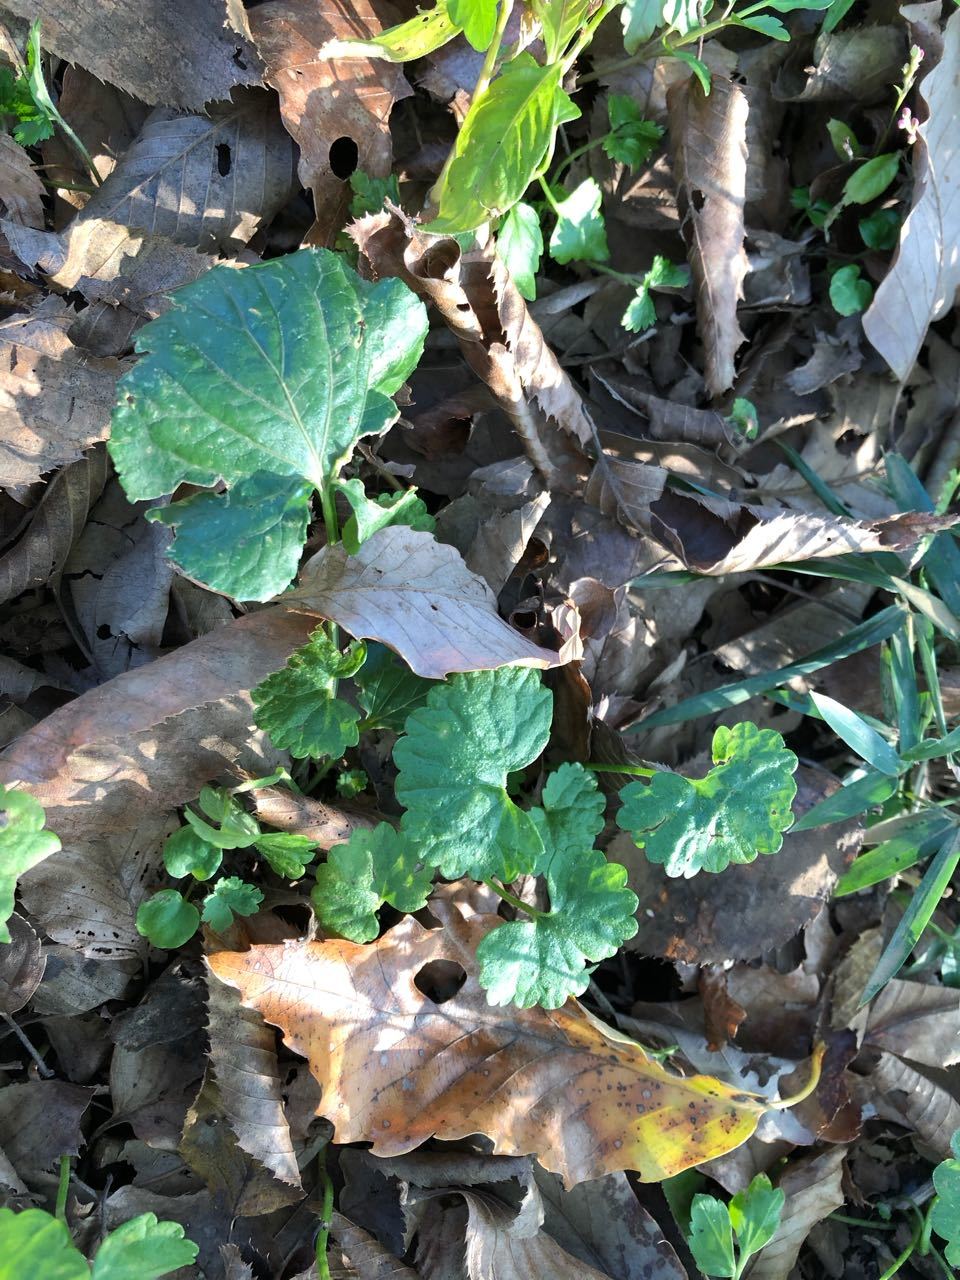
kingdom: Plantae
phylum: Tracheophyta
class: Magnoliopsida
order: Lamiales
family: Lamiaceae
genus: Glechoma
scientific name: Glechoma grandis
